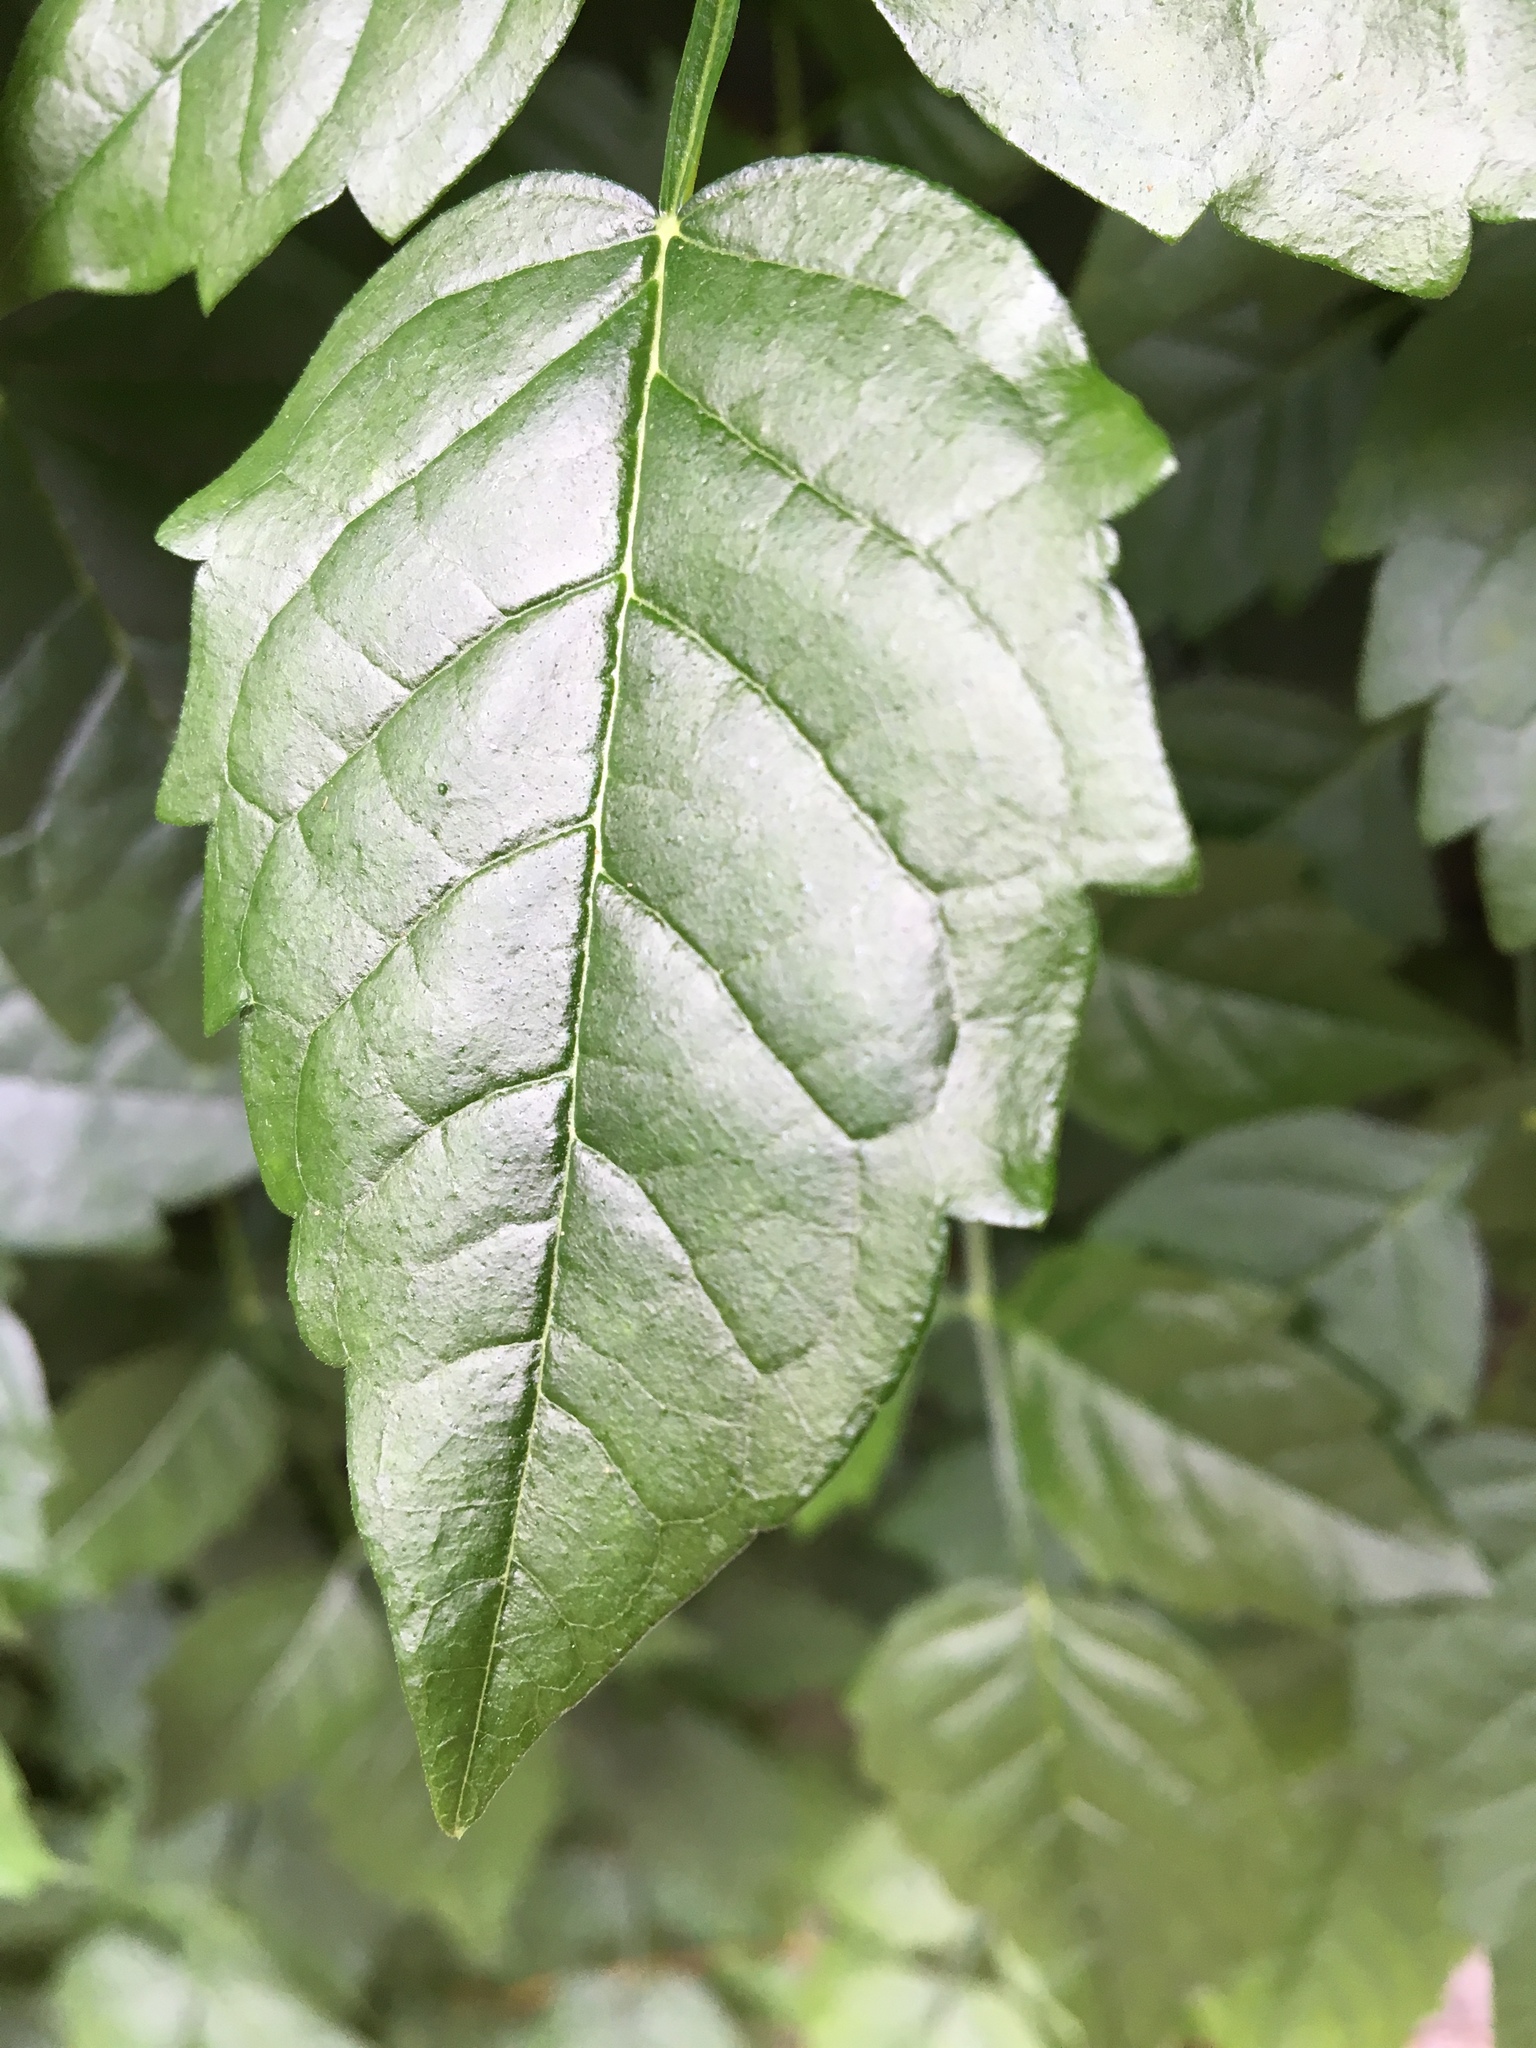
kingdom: Plantae
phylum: Tracheophyta
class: Magnoliopsida
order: Lamiales
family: Bignoniaceae
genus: Campsis
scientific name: Campsis radicans
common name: Trumpet-creeper
